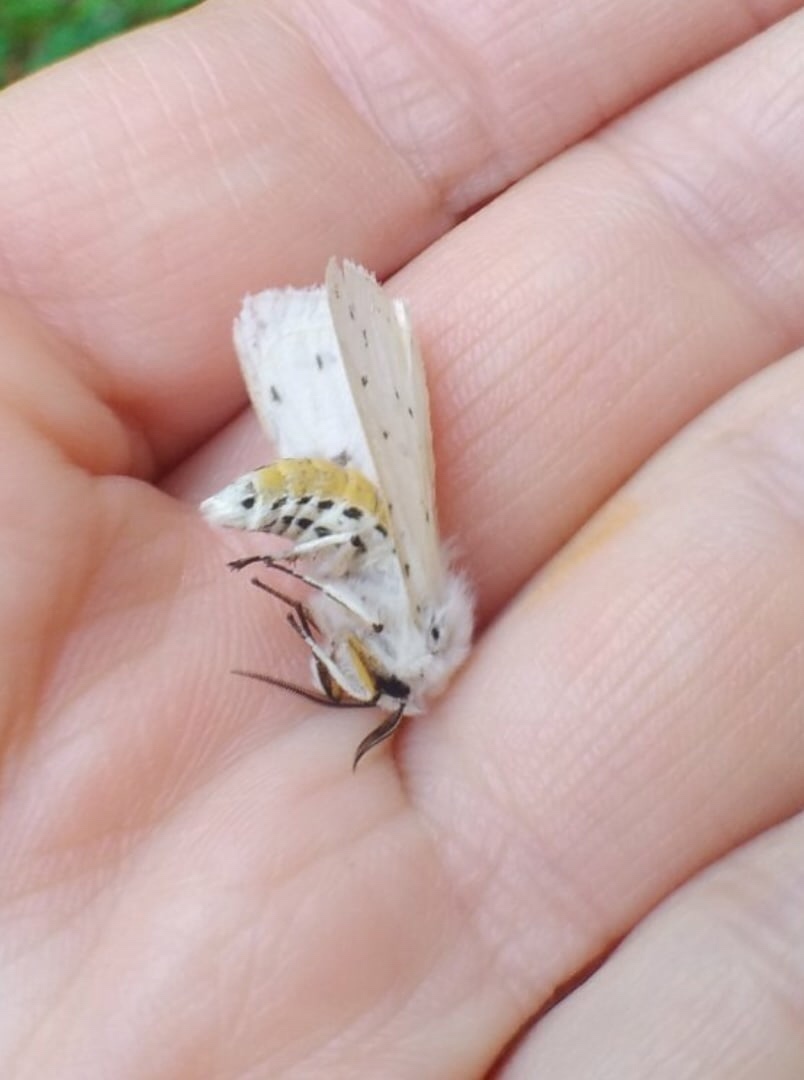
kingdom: Animalia
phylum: Arthropoda
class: Insecta
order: Lepidoptera
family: Erebidae
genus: Spilosoma
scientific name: Spilosoma lubricipeda
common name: White ermine
